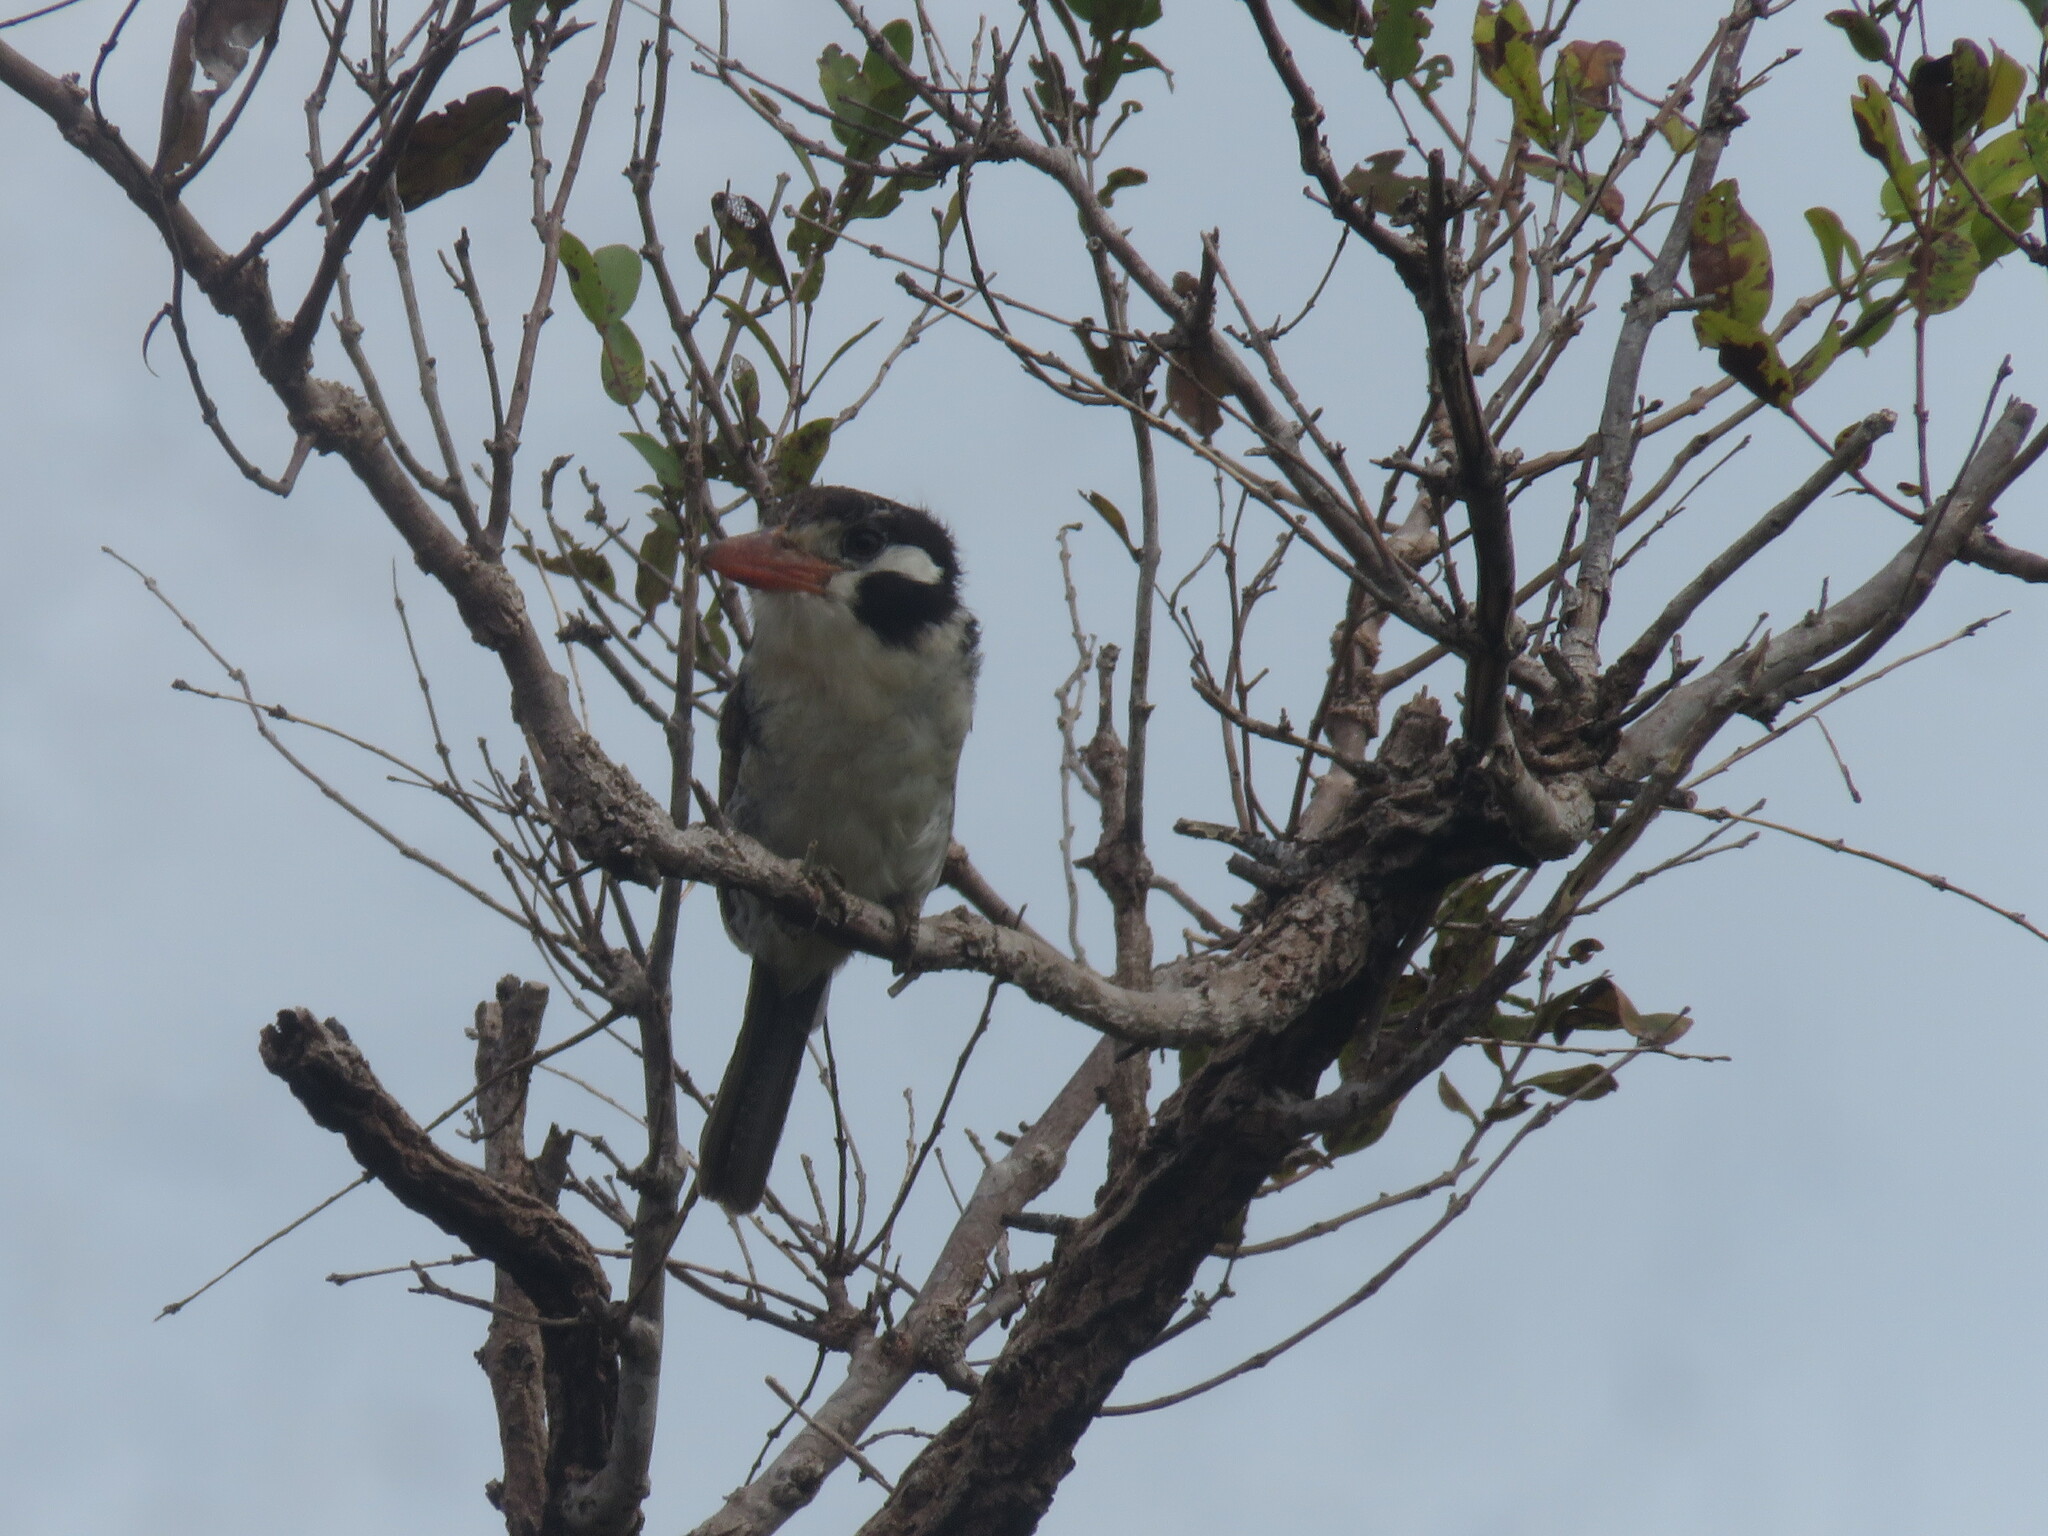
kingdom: Animalia
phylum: Chordata
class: Aves
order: Piciformes
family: Bucconidae
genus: Nystalus
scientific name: Nystalus chacuru
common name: White-eared puffbird
